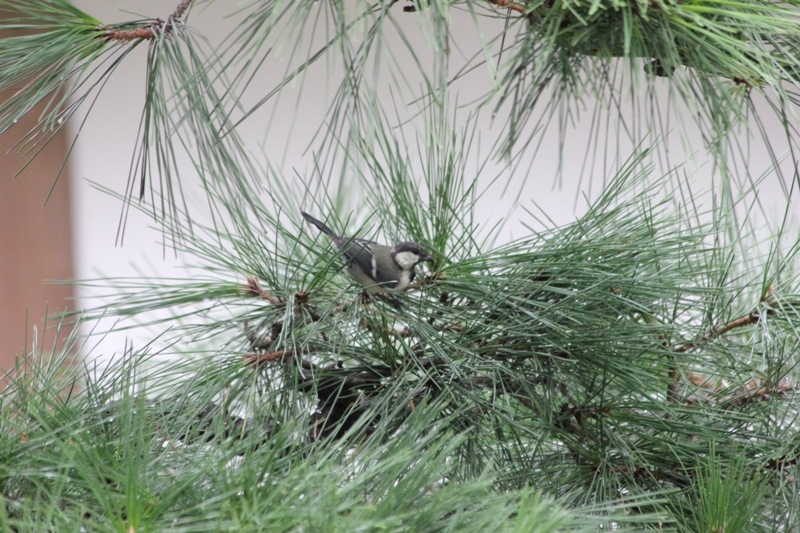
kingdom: Animalia
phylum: Chordata
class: Aves
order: Passeriformes
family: Paridae
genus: Parus
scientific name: Parus minor
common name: Japanese tit
